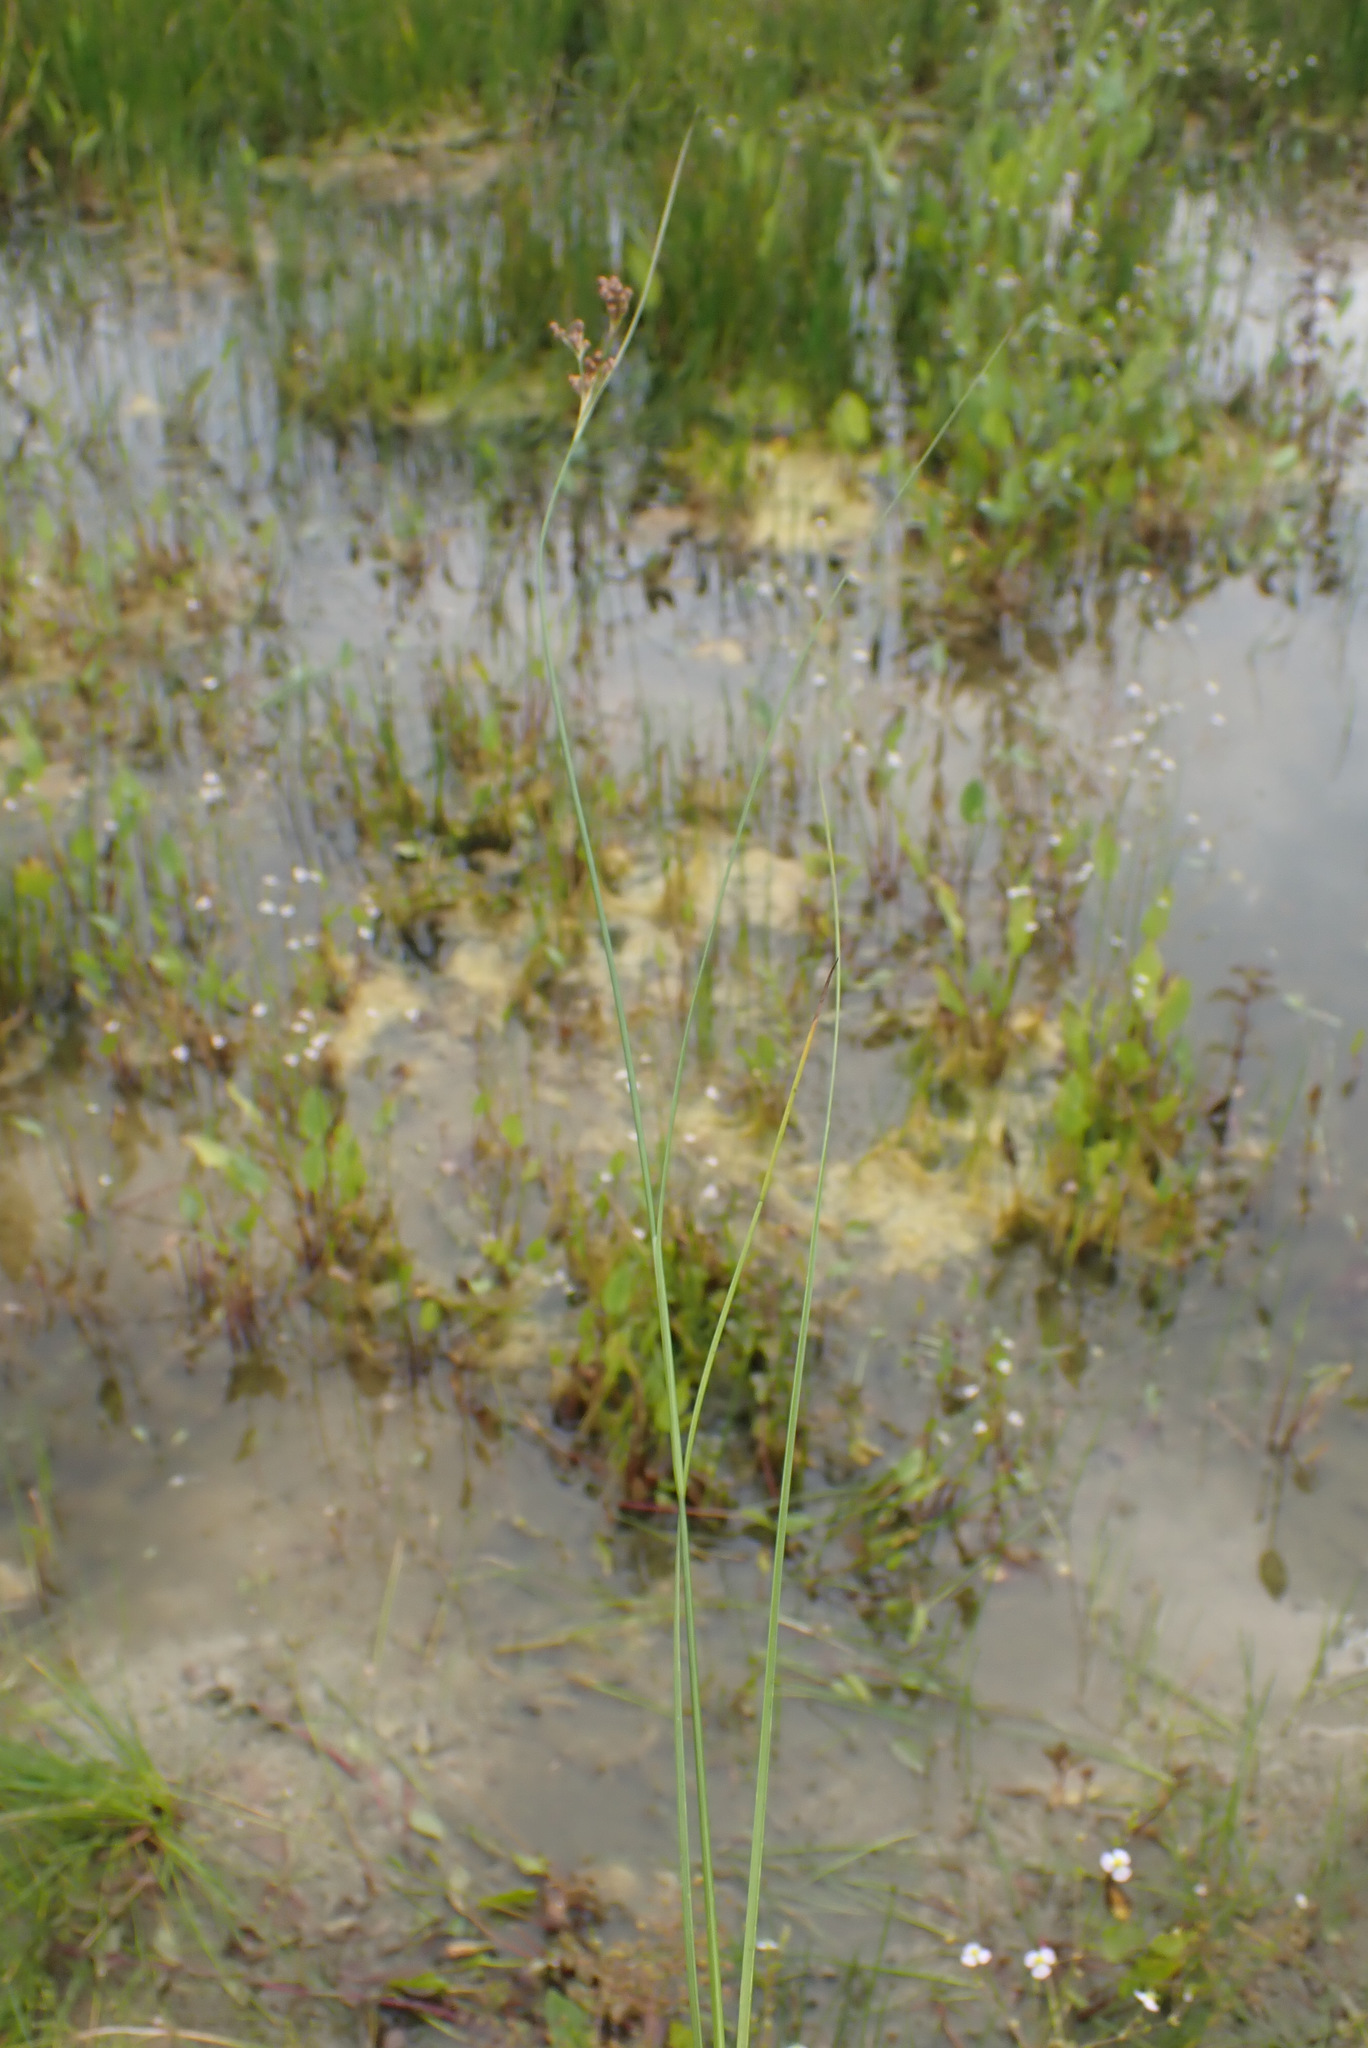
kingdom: Plantae
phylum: Tracheophyta
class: Liliopsida
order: Poales
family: Juncaceae
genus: Juncus
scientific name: Juncus compressus
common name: Round-fruited rush
